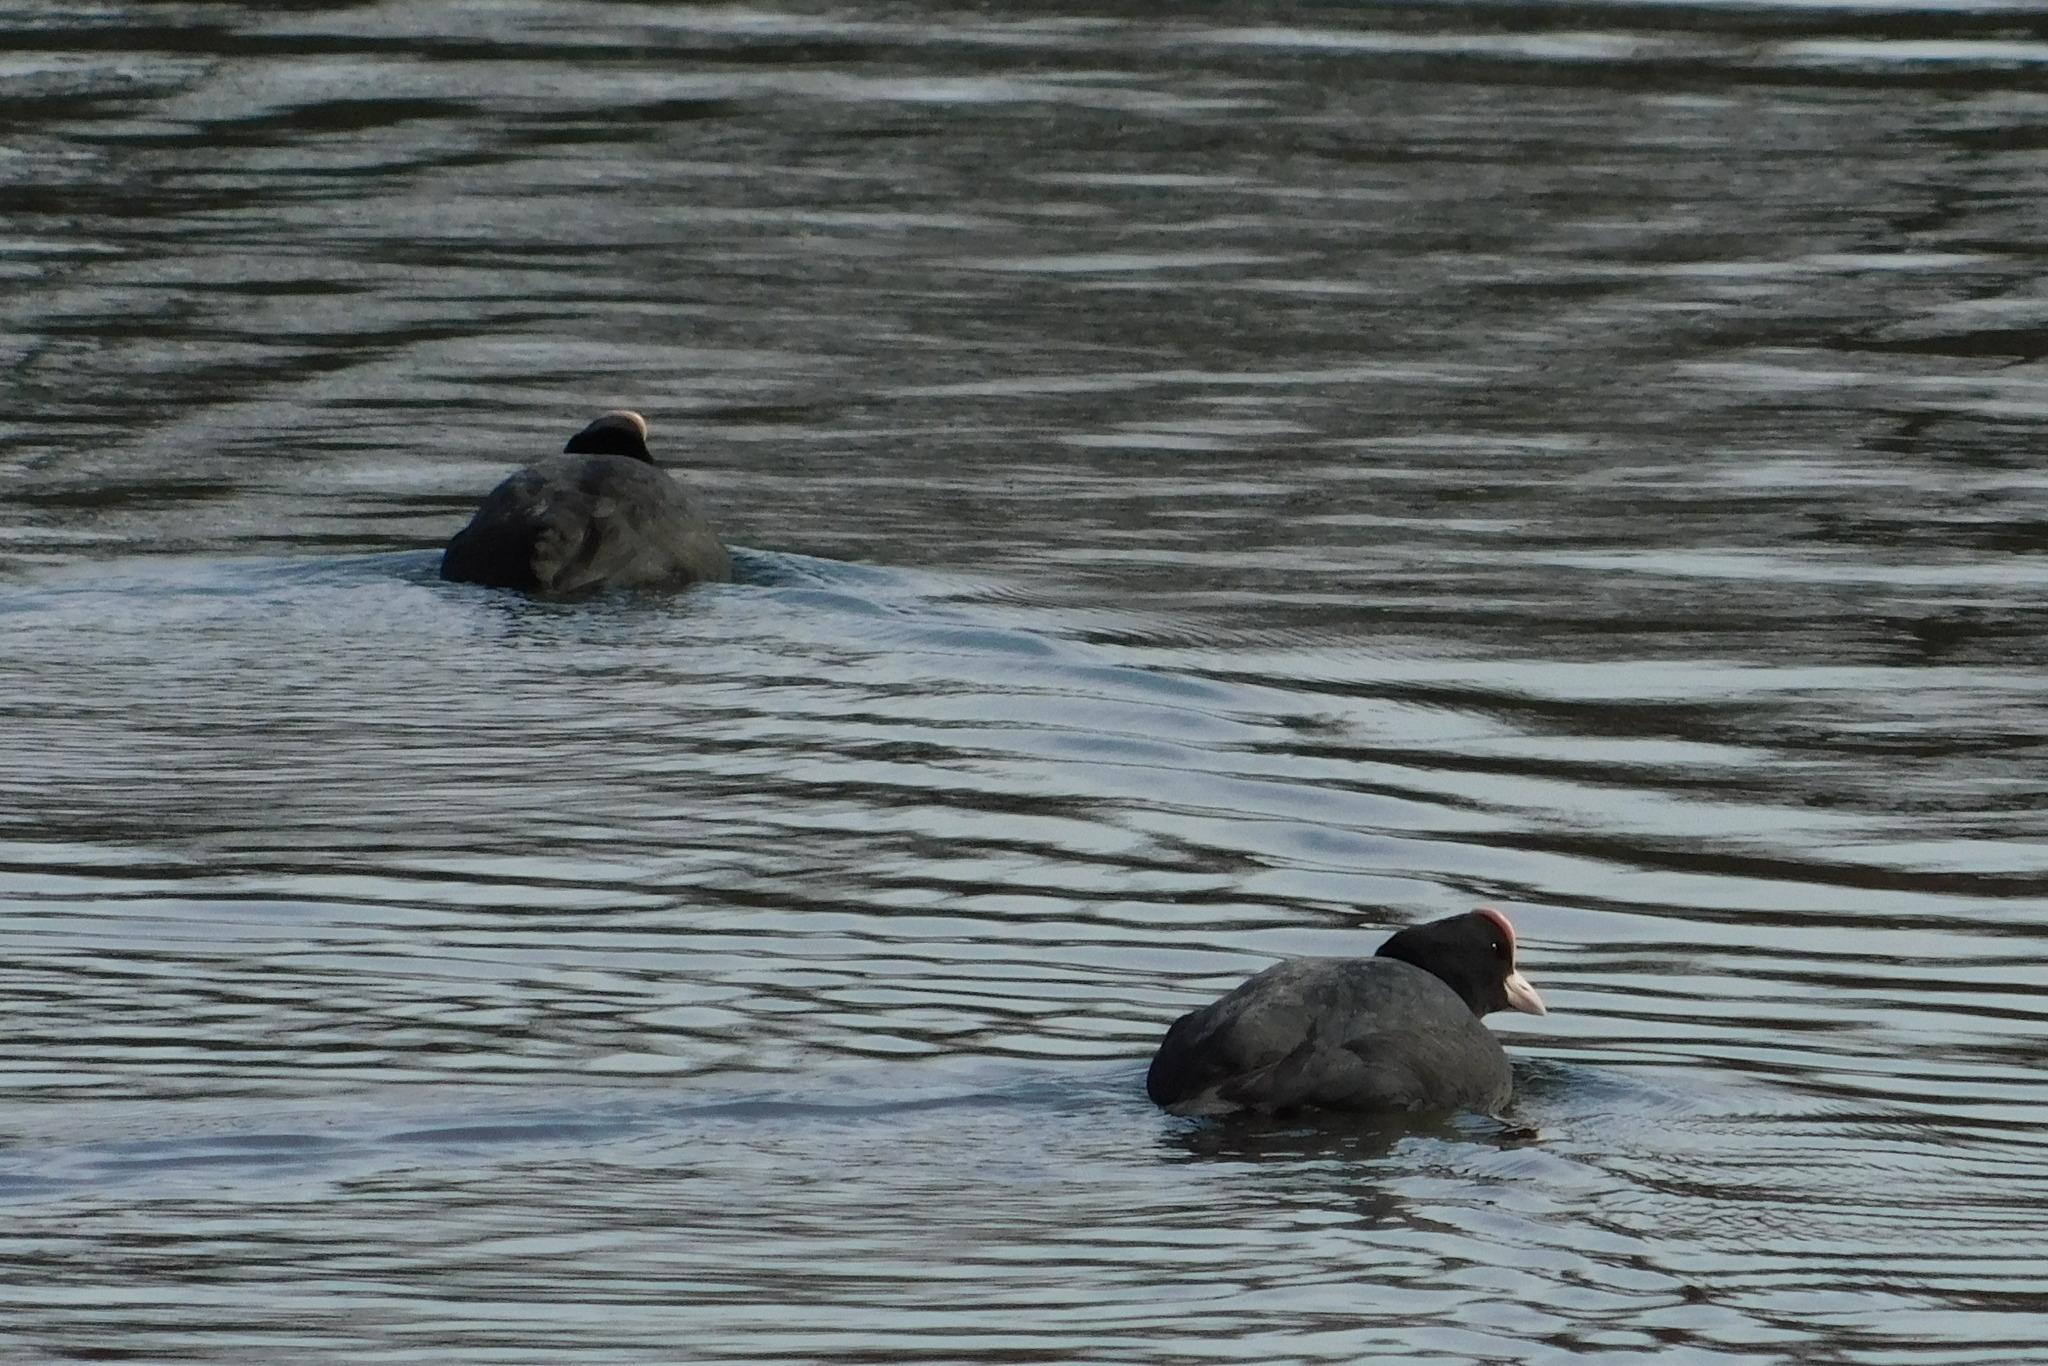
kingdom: Animalia
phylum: Chordata
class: Aves
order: Gruiformes
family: Rallidae
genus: Fulica
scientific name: Fulica atra
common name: Eurasian coot
